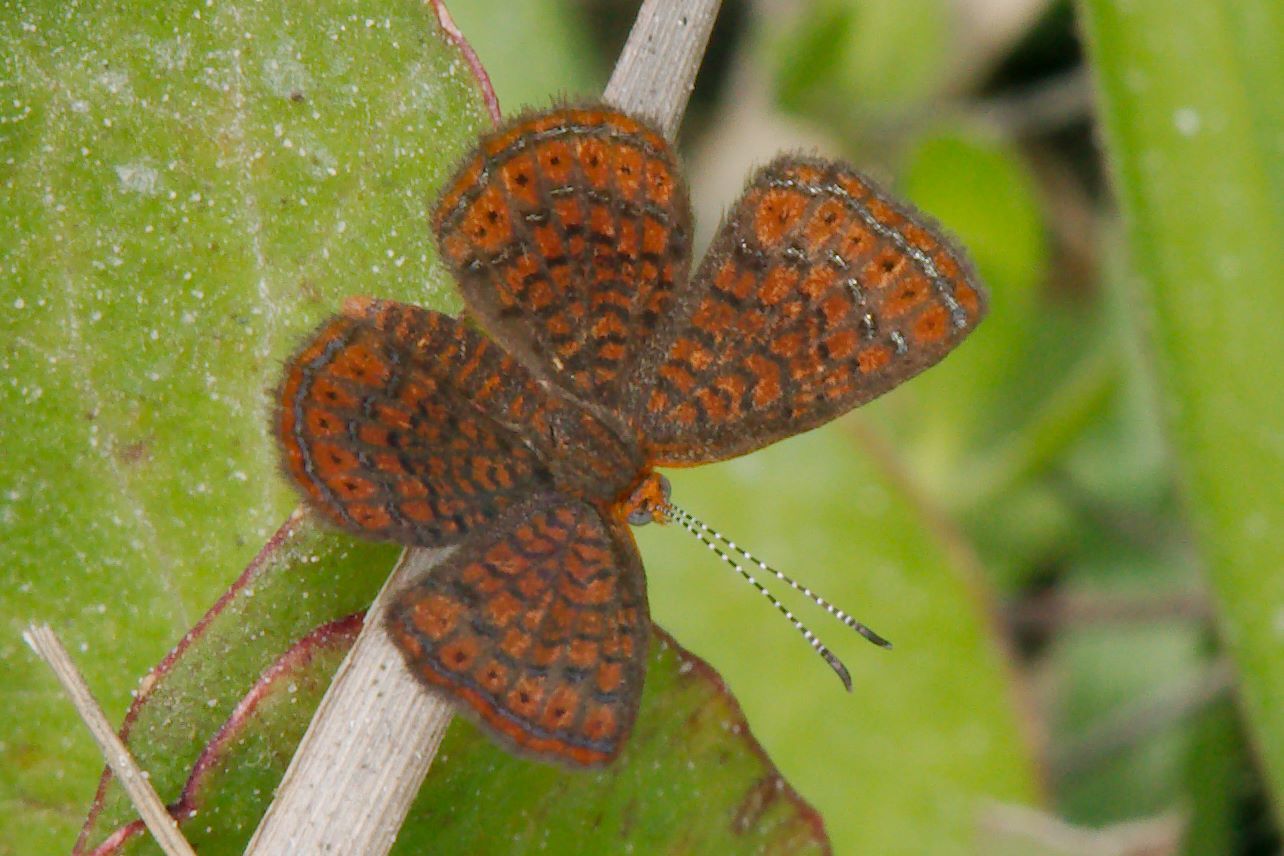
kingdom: Animalia
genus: Calephelis
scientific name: Calephelis virginiensis
